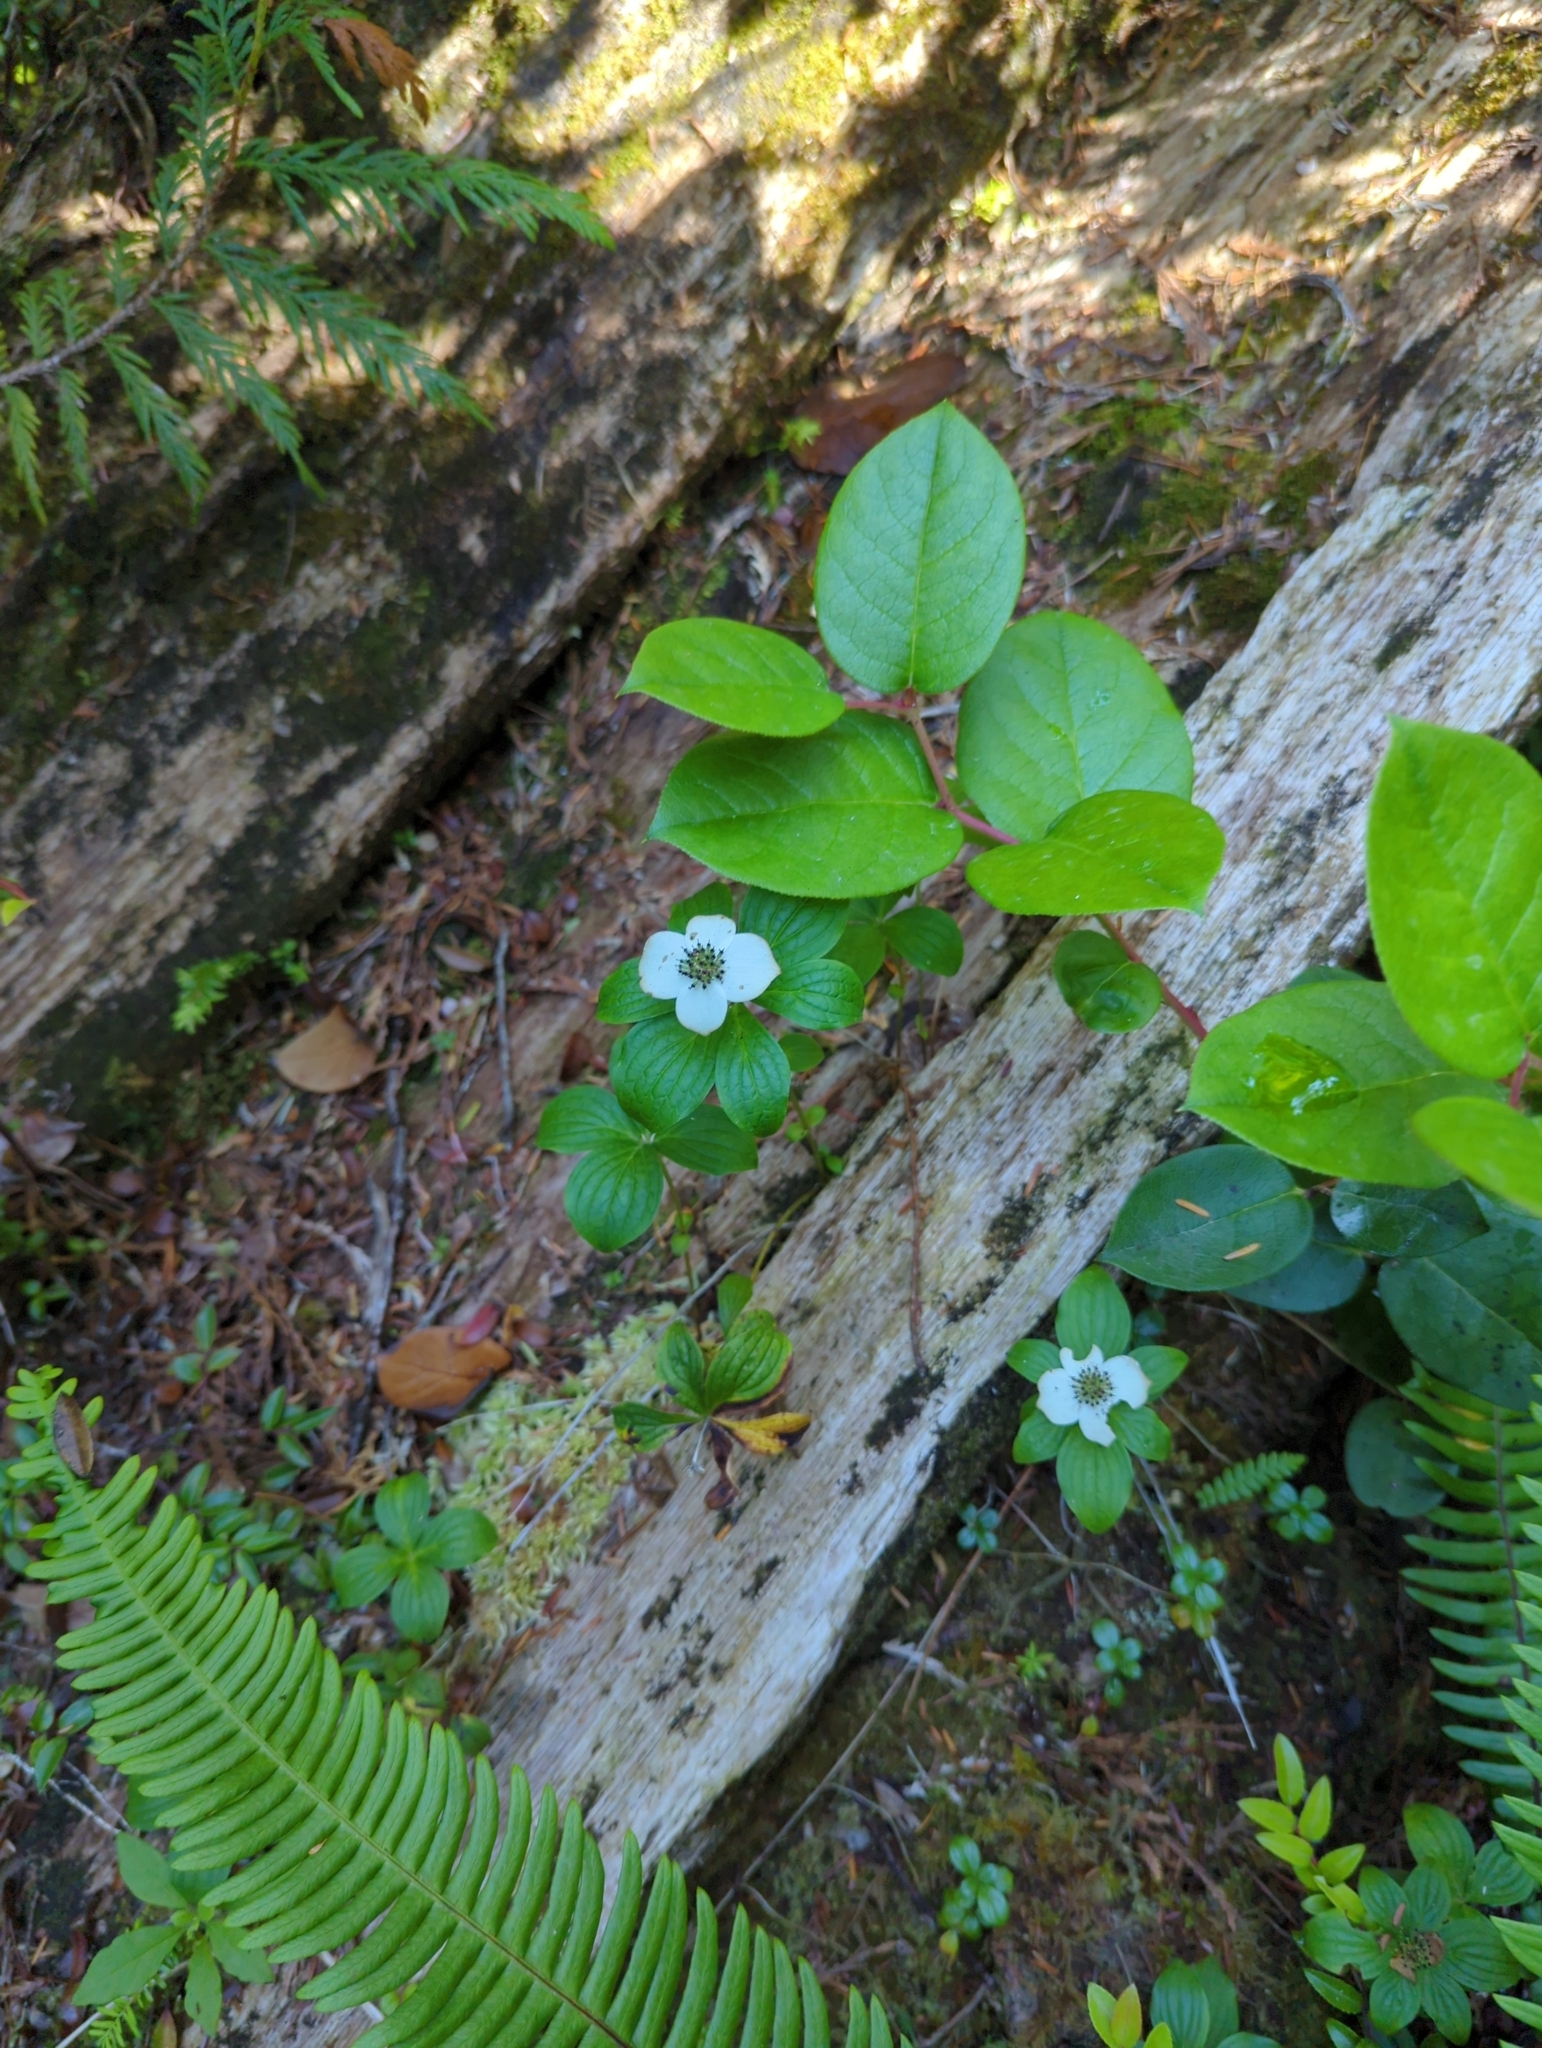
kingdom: Plantae
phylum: Tracheophyta
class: Magnoliopsida
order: Cornales
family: Cornaceae
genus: Cornus
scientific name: Cornus unalaschkensis
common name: Alaska bunchberry
